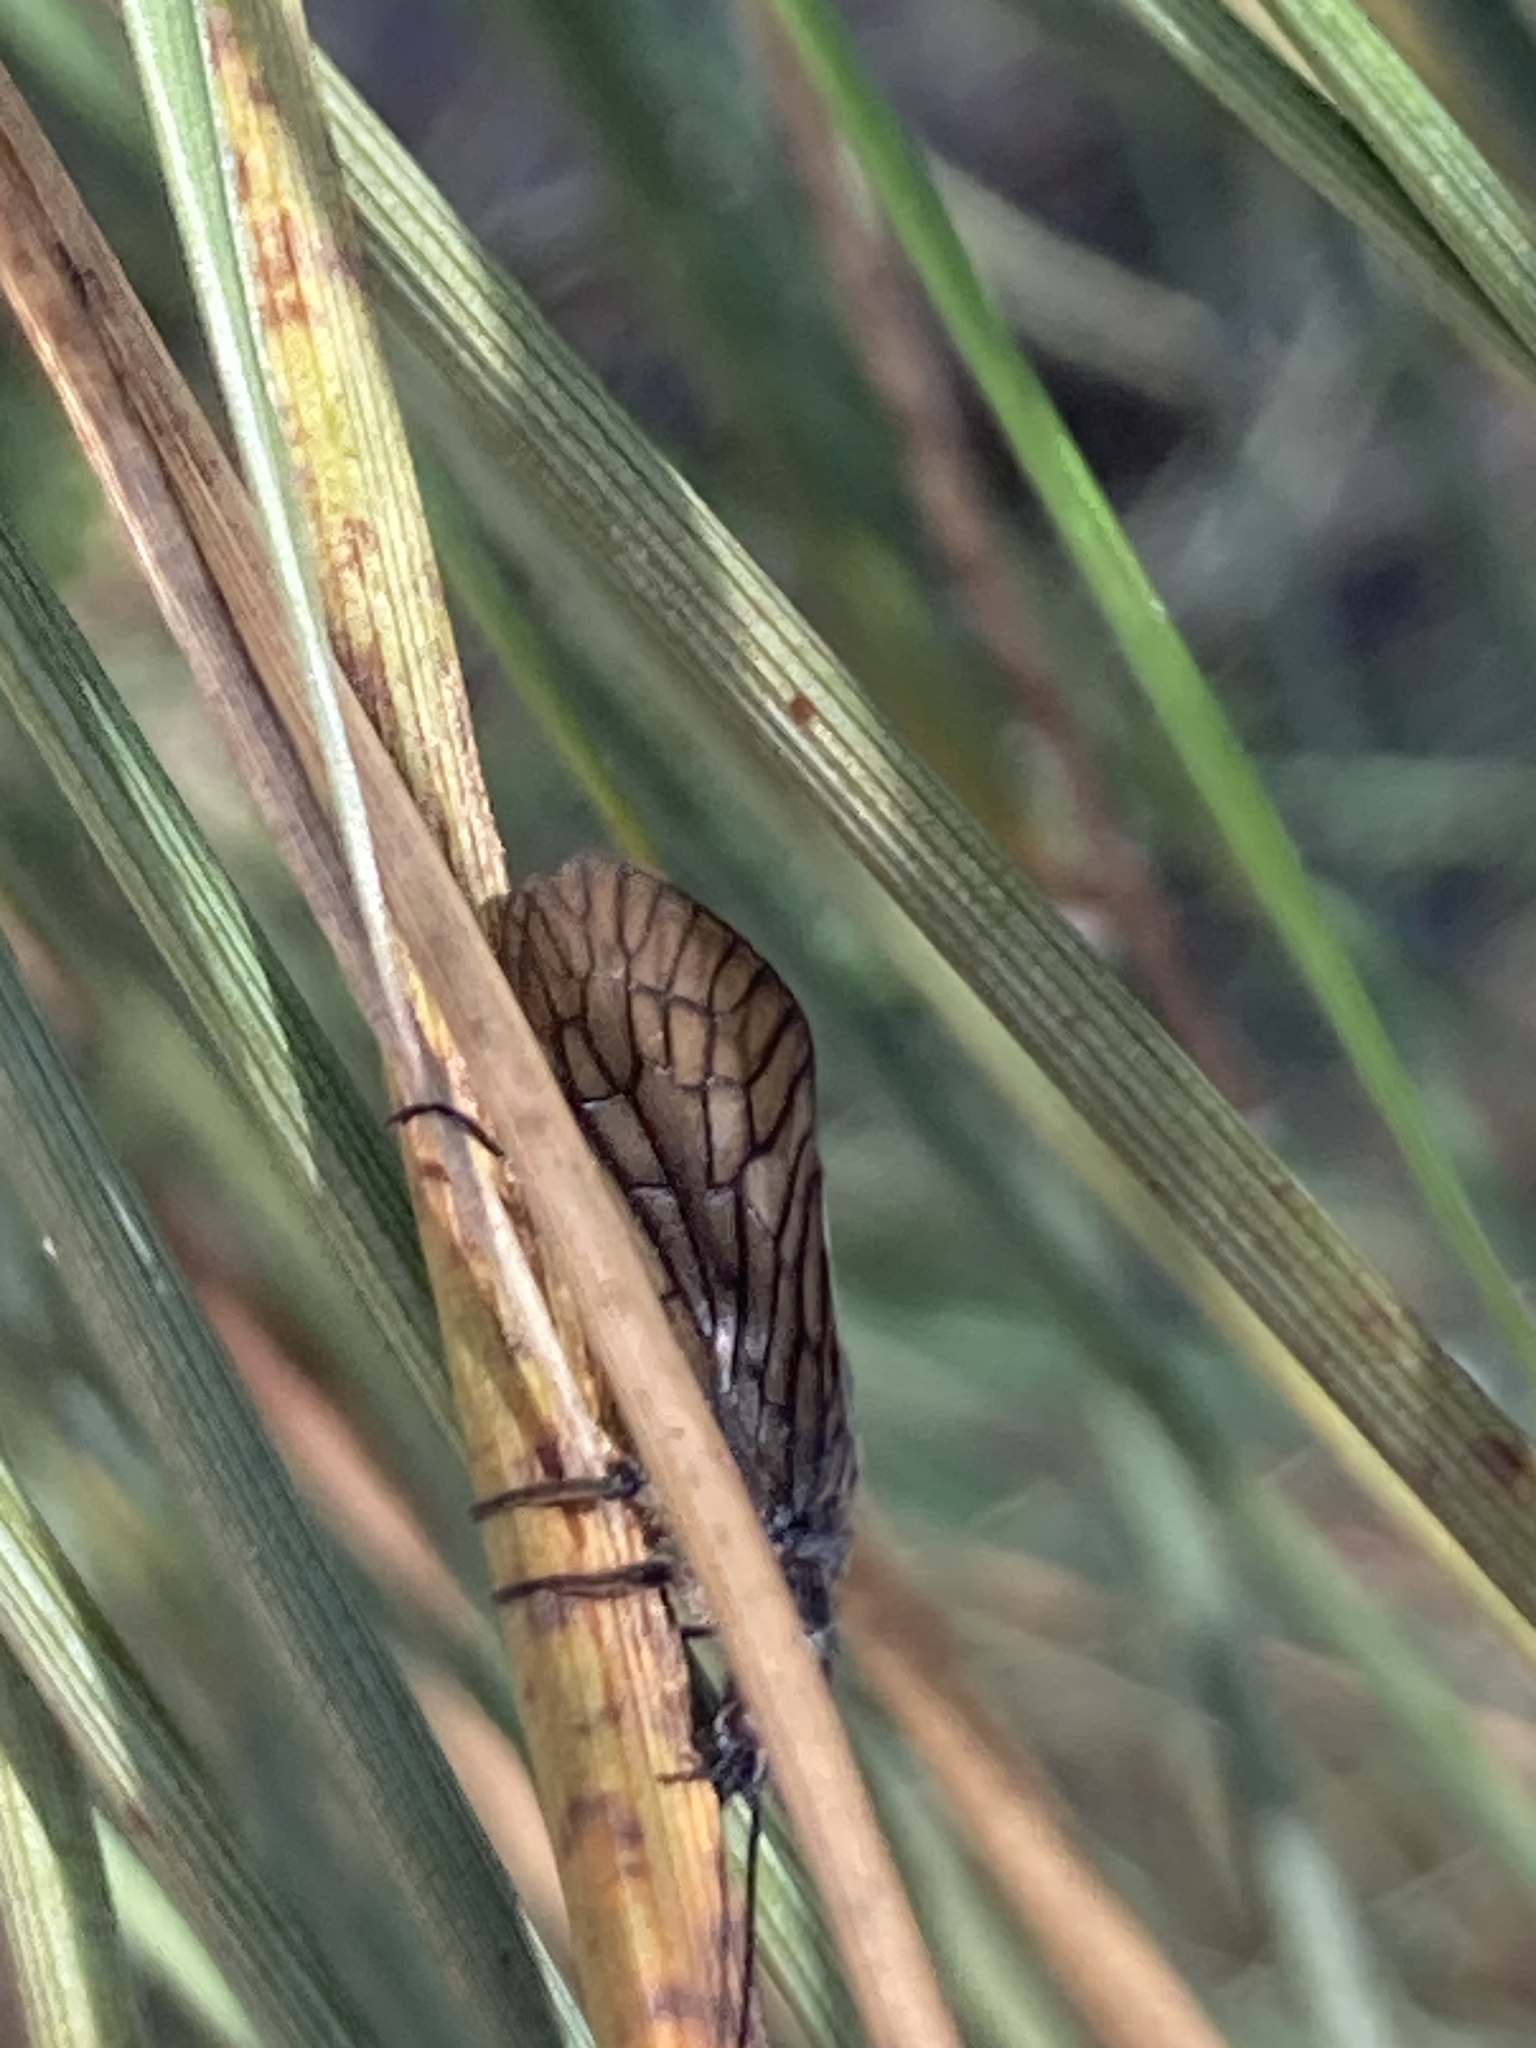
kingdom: Animalia
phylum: Arthropoda
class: Insecta
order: Megaloptera
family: Sialidae
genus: Sialis
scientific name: Sialis
